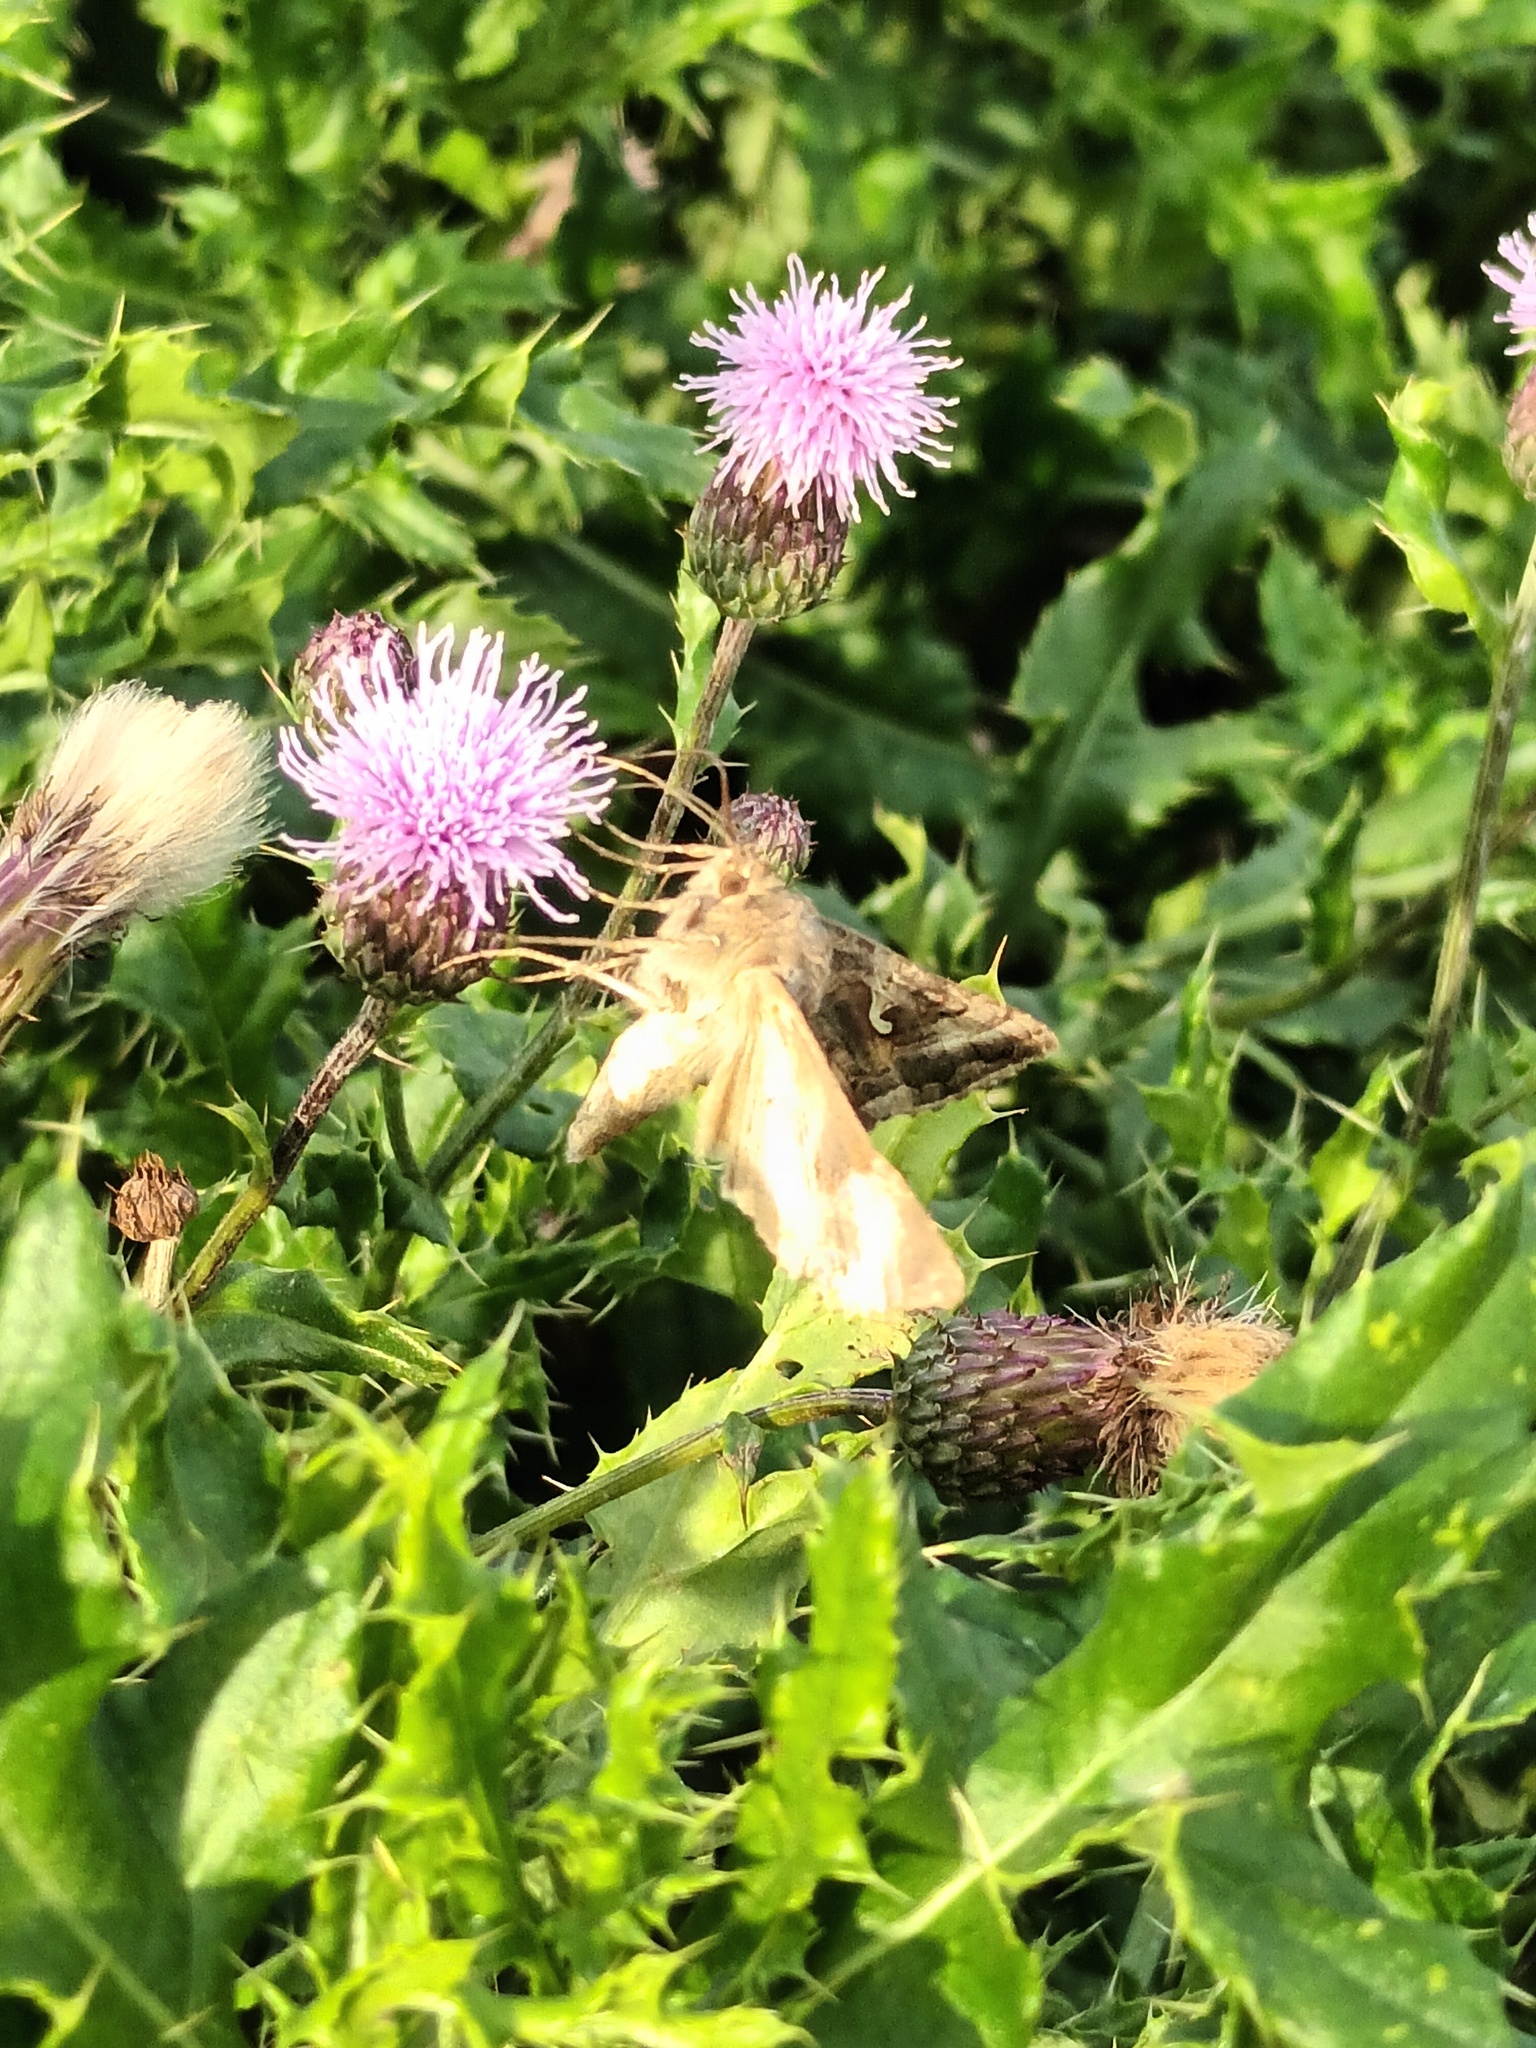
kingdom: Animalia
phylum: Arthropoda
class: Insecta
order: Lepidoptera
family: Noctuidae
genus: Autographa
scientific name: Autographa gamma
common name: Silver y
